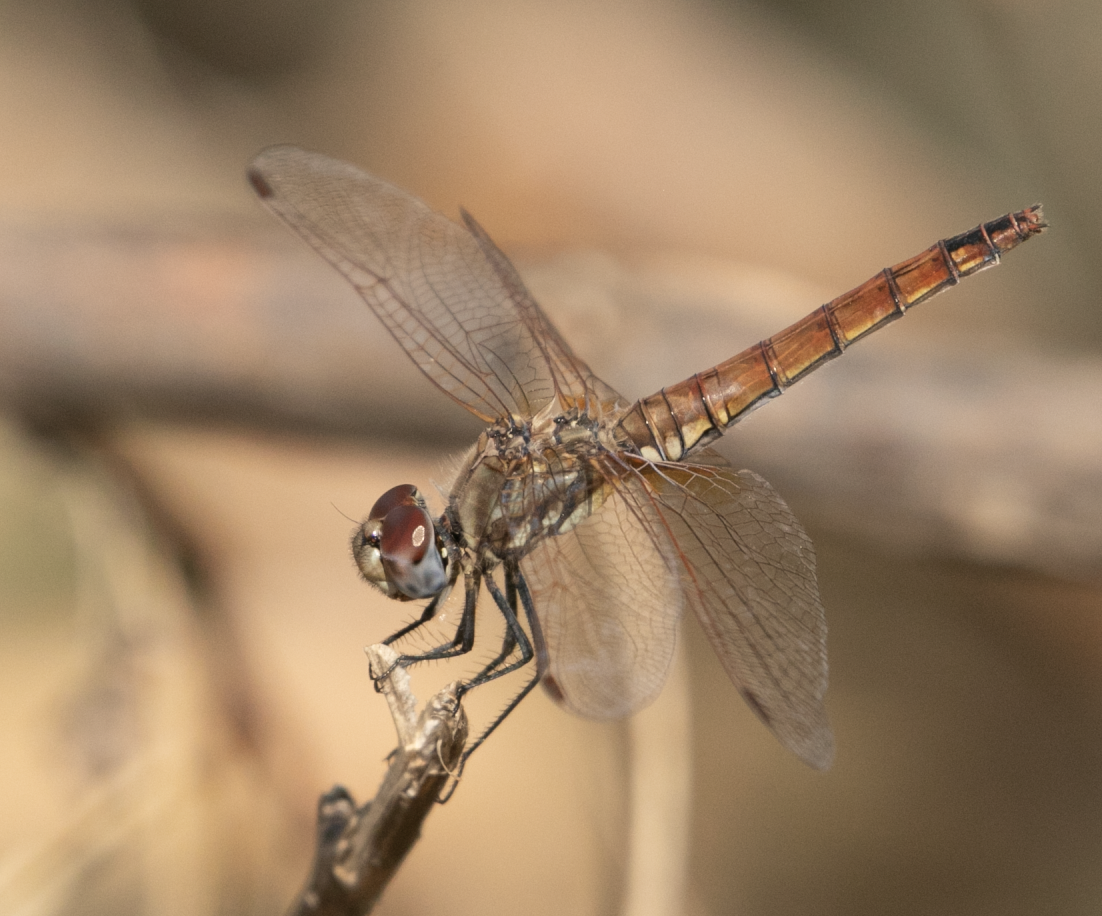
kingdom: Animalia
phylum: Arthropoda
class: Insecta
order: Odonata
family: Libellulidae
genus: Trithemis
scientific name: Trithemis annulata
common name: Violet dropwing
